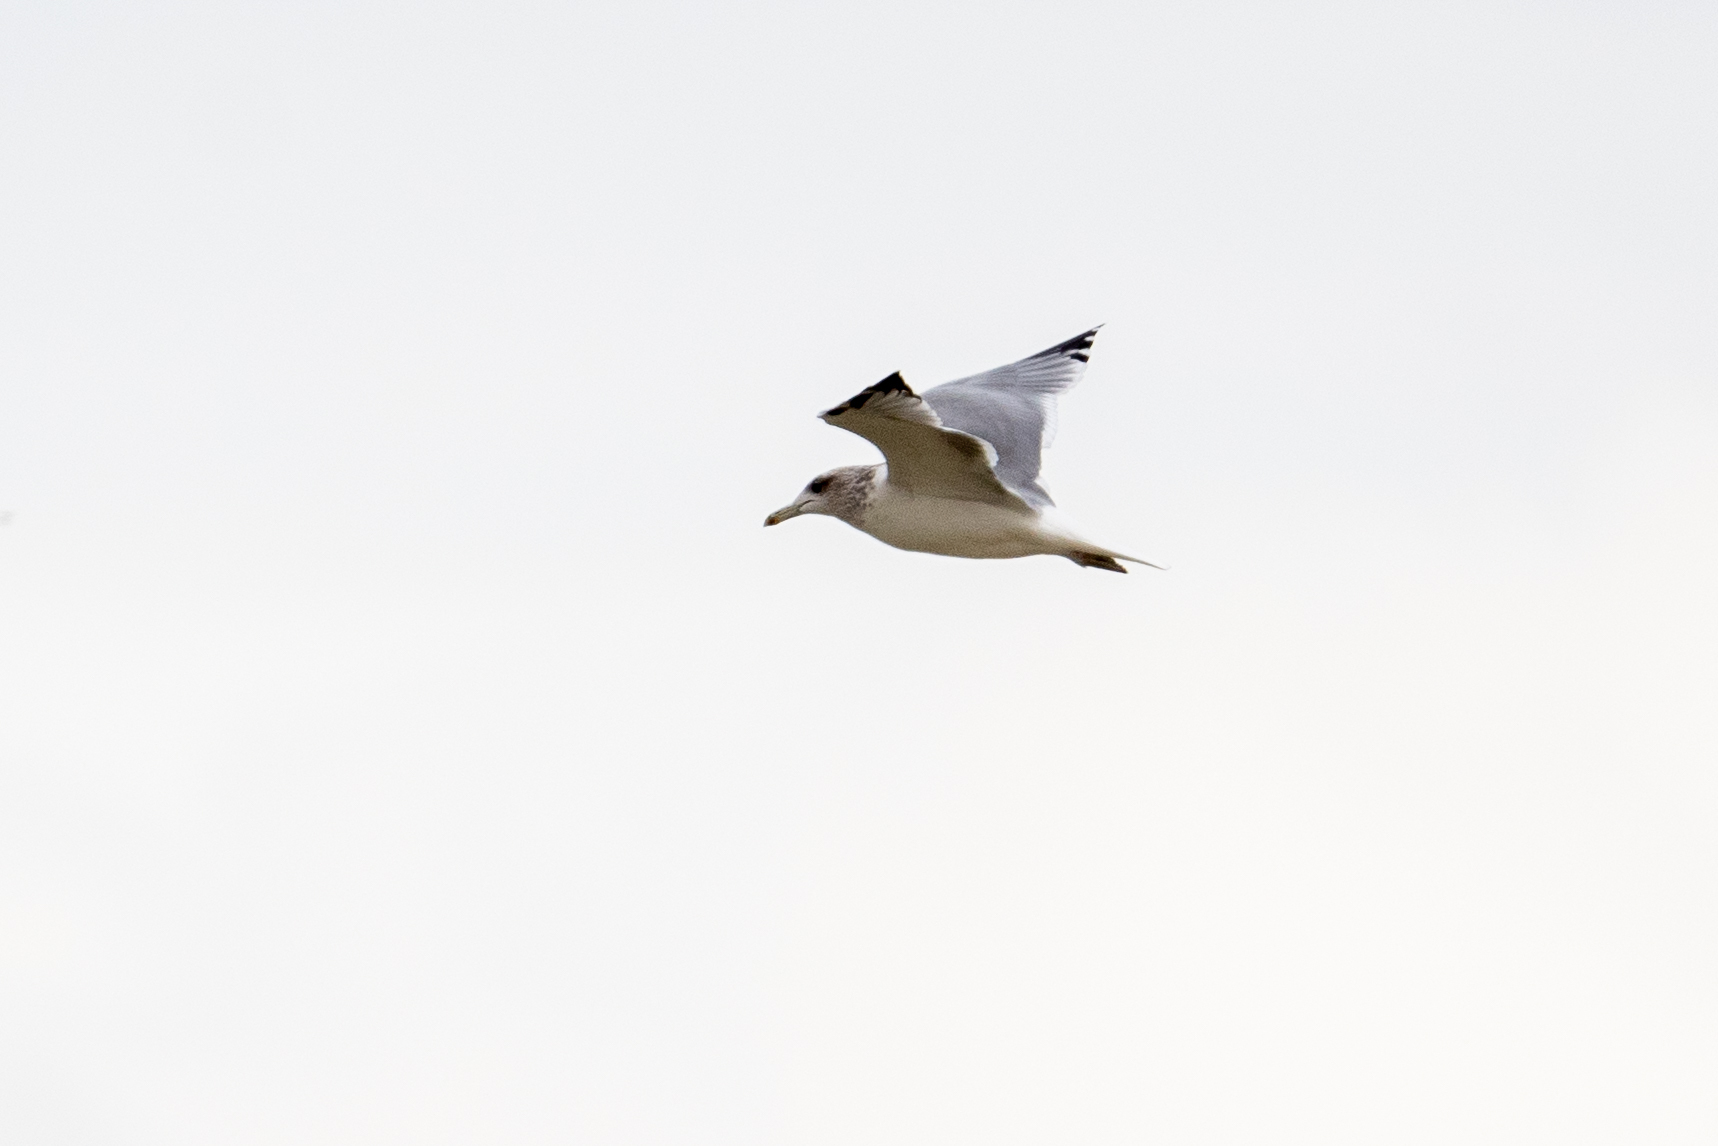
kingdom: Animalia
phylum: Chordata
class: Aves
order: Charadriiformes
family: Laridae
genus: Larus
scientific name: Larus californicus
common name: California gull
